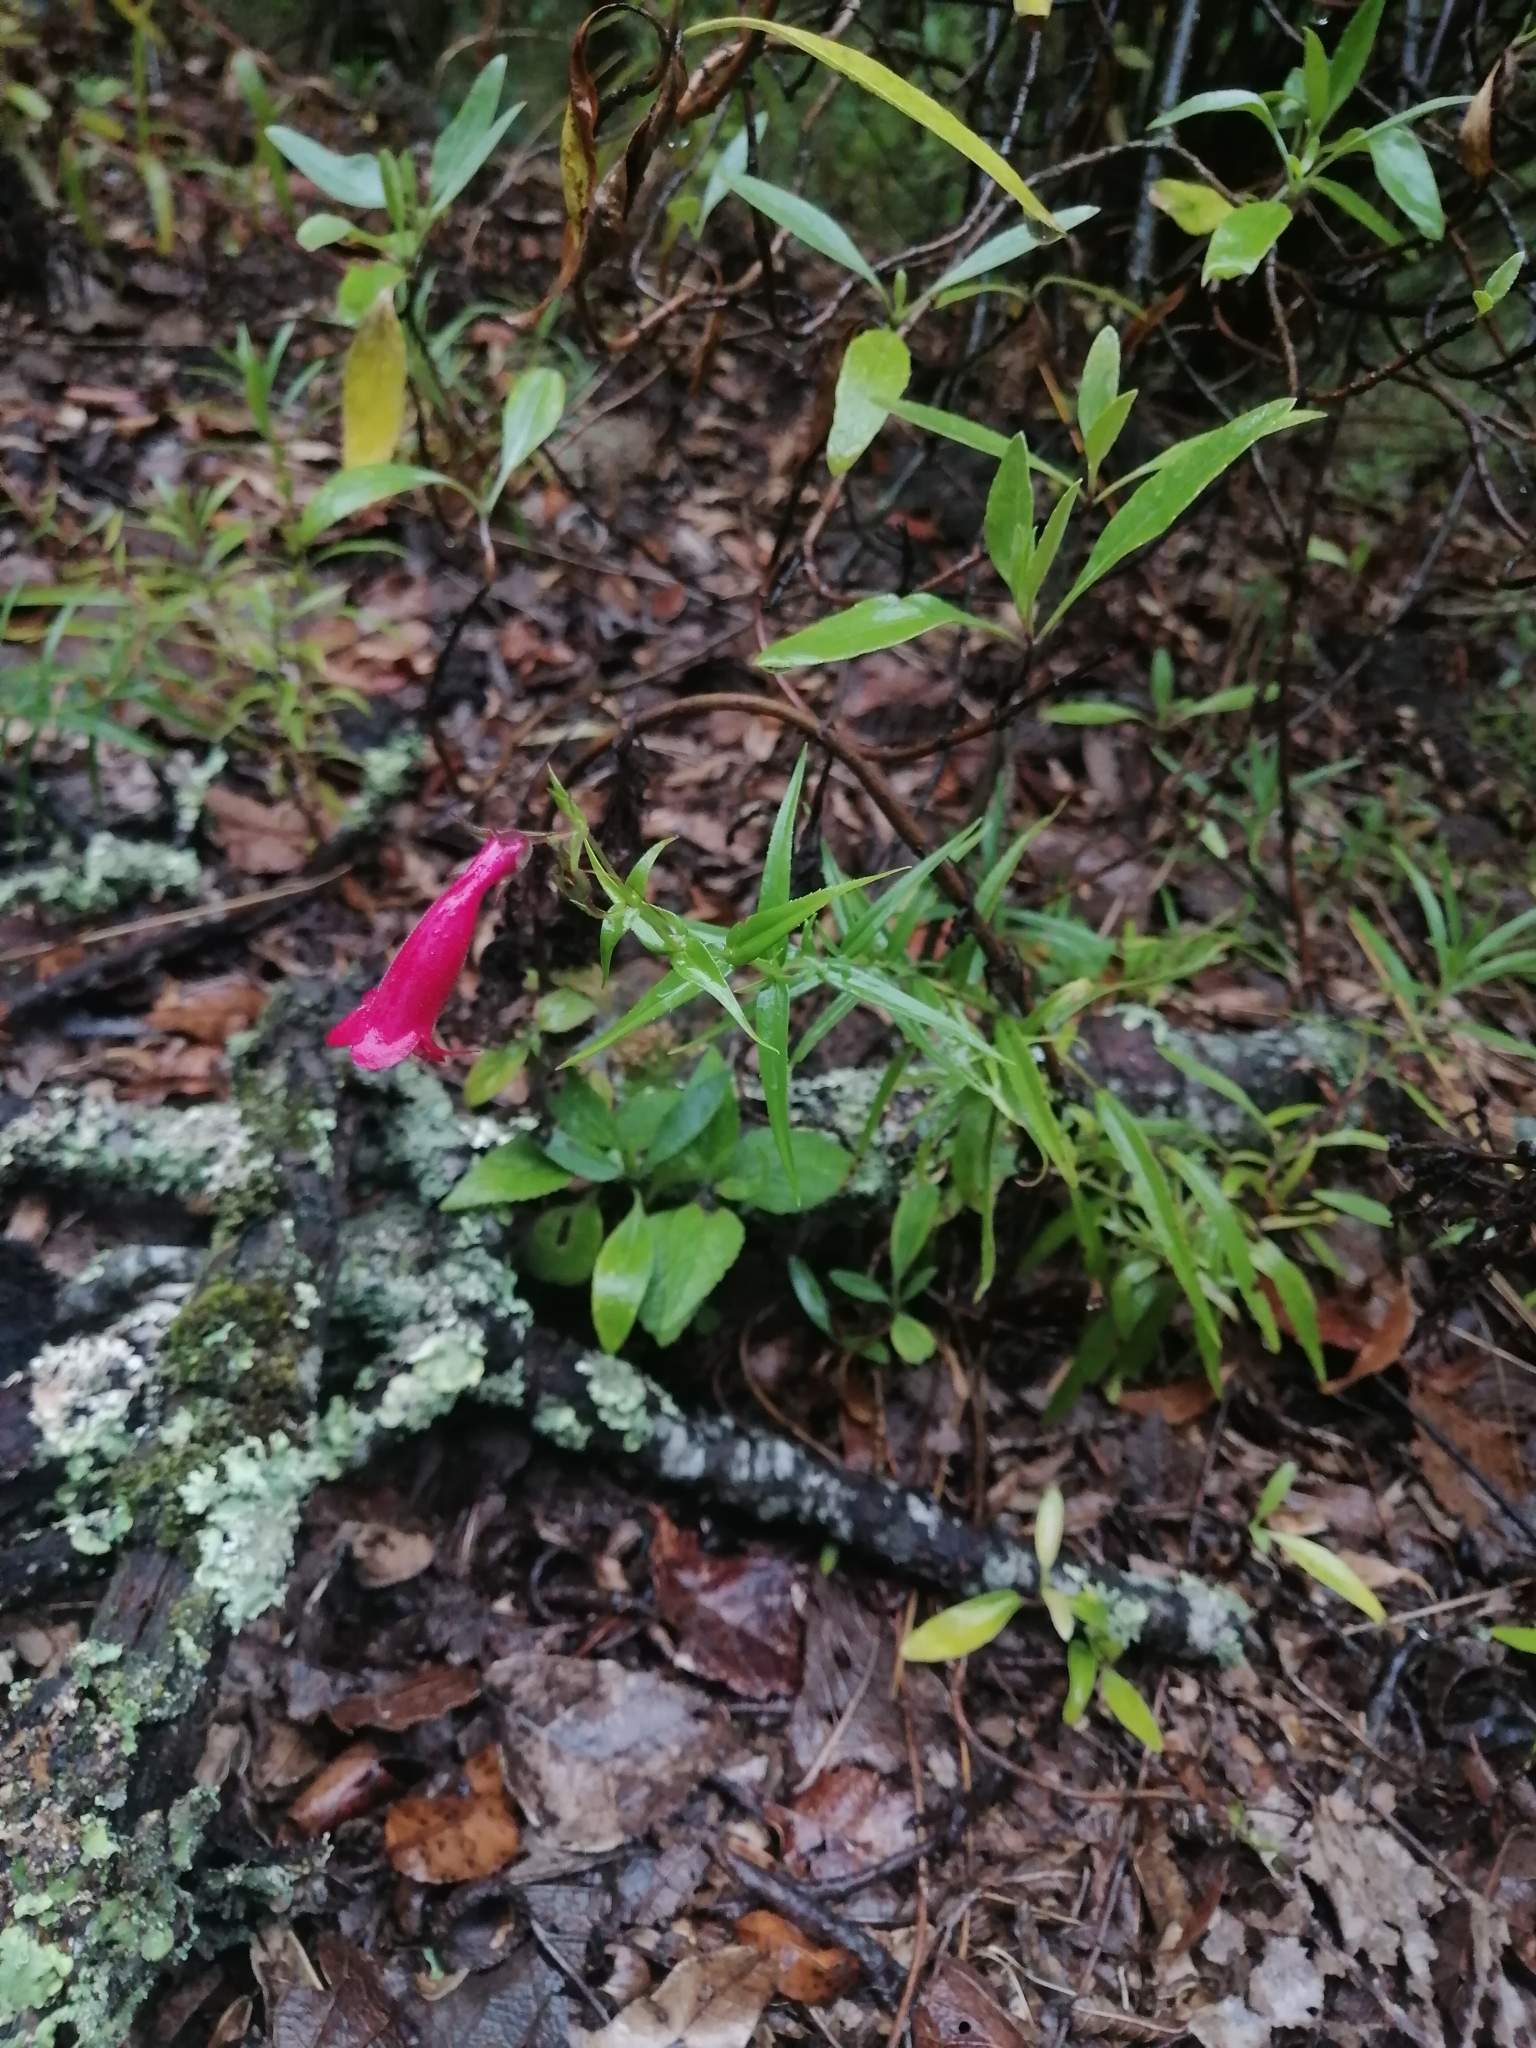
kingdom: Plantae
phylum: Tracheophyta
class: Magnoliopsida
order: Lamiales
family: Plantaginaceae
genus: Penstemon
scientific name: Penstemon roseus
